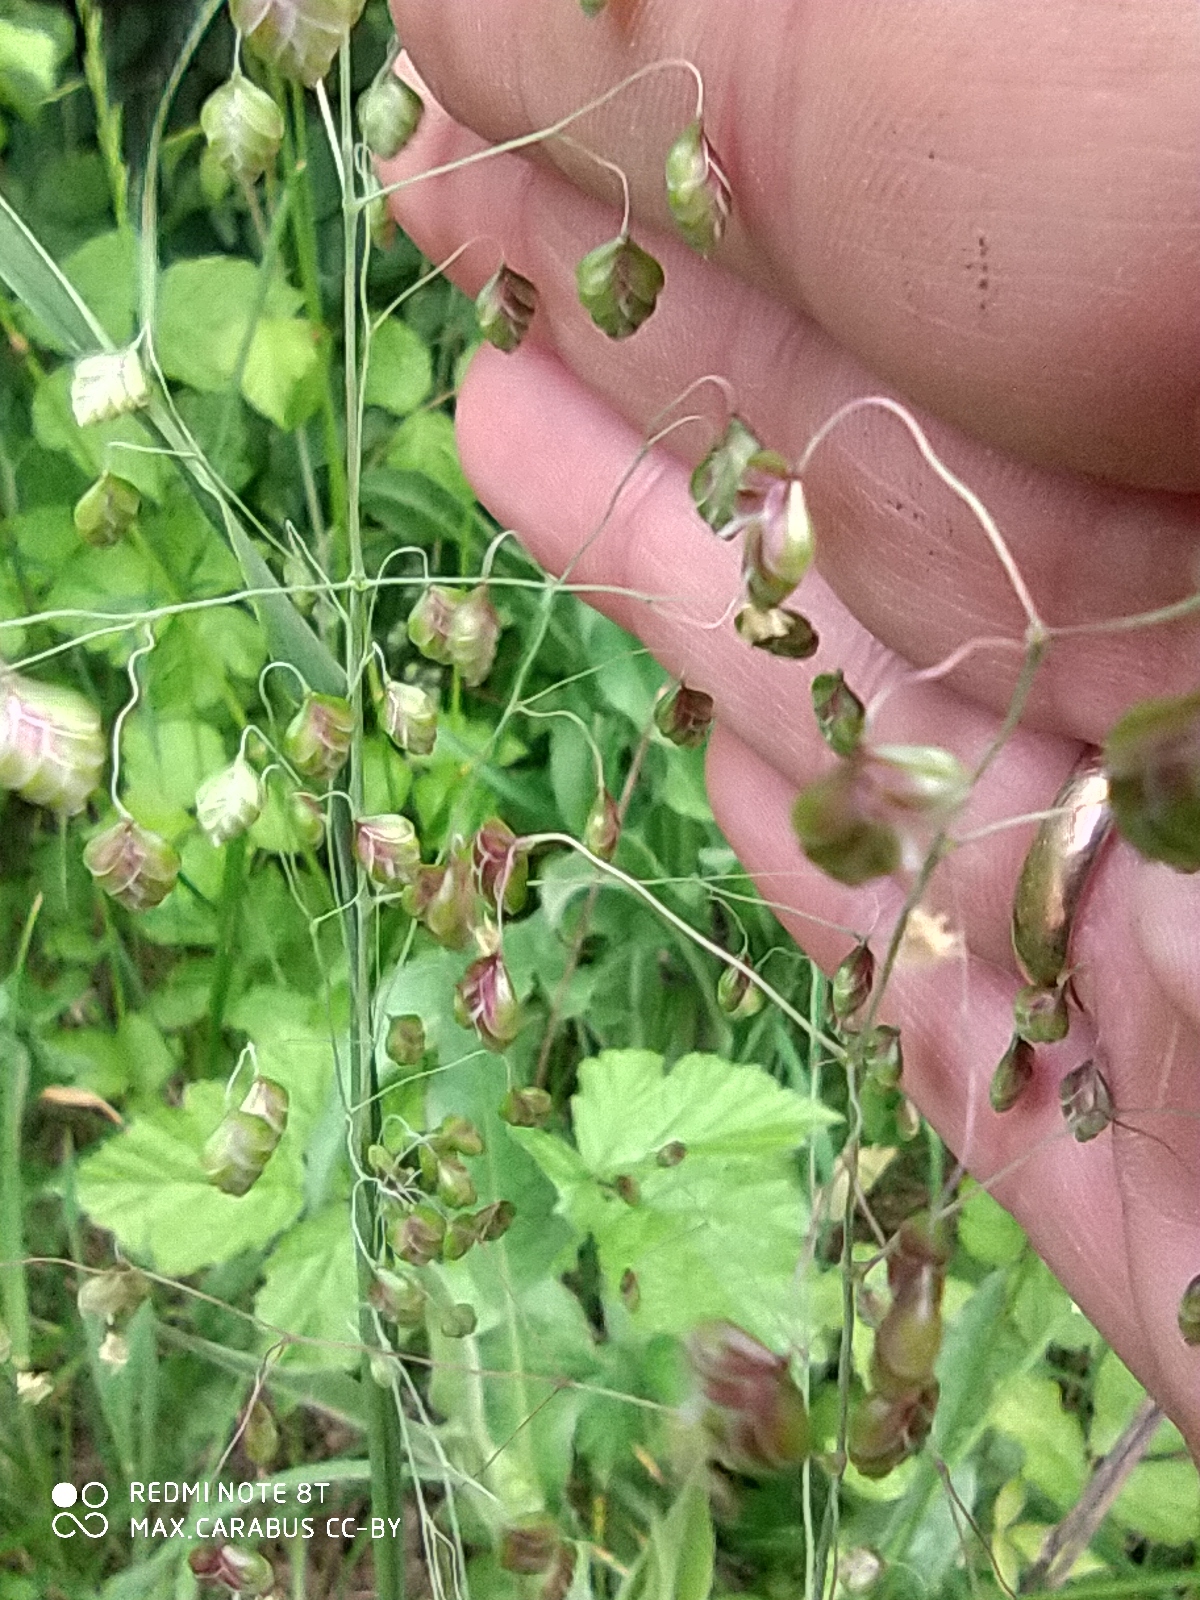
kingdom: Plantae
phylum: Tracheophyta
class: Liliopsida
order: Poales
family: Poaceae
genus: Briza
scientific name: Briza media
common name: Quaking grass
